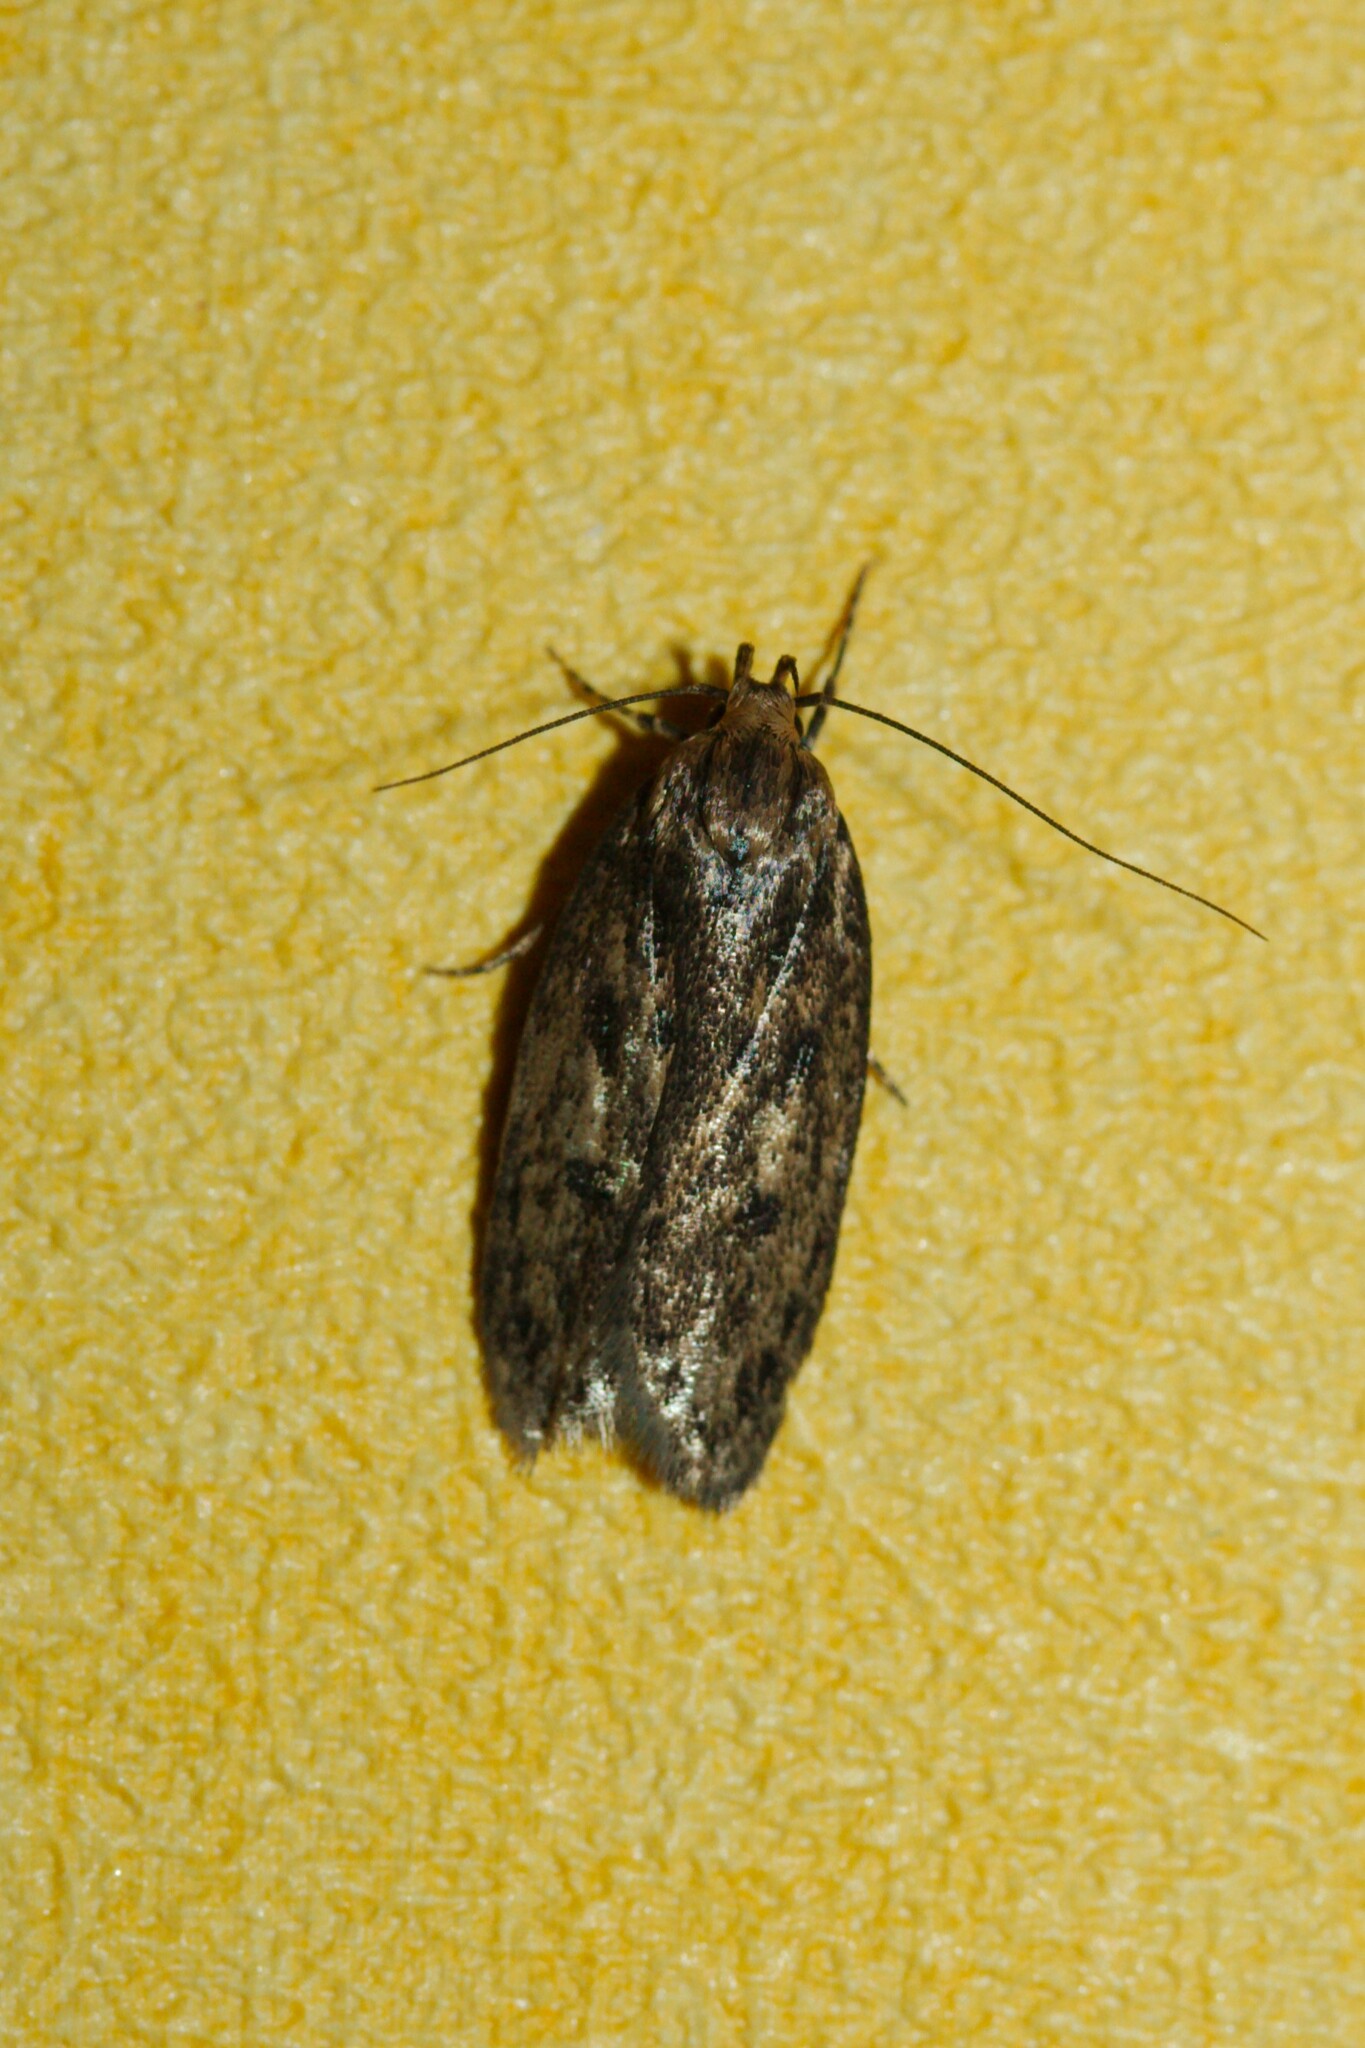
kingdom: Animalia
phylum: Arthropoda
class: Insecta
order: Lepidoptera
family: Oecophoridae
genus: Hofmannophila
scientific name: Hofmannophila pseudospretella
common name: Brown house moth
